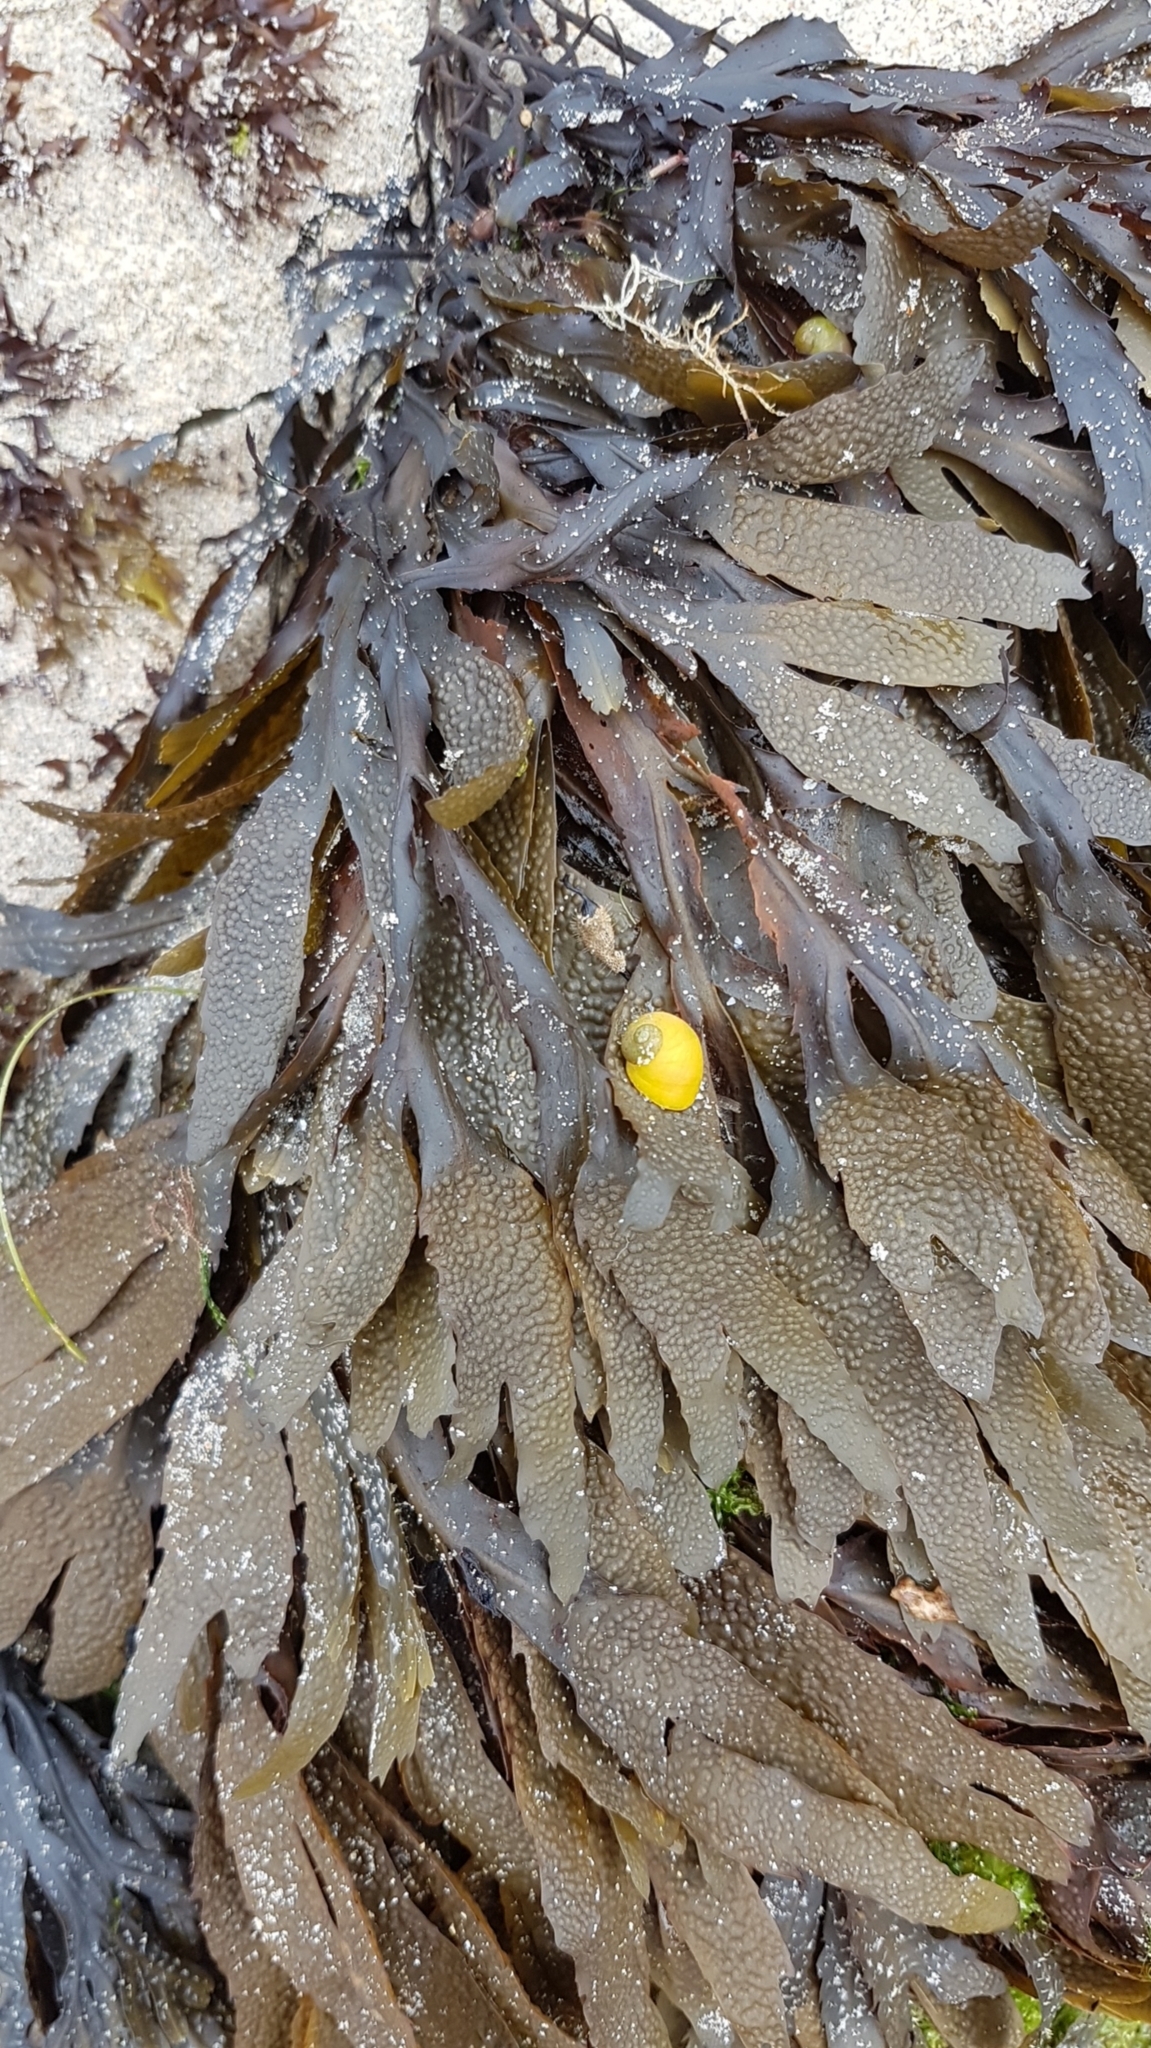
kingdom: Chromista
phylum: Ochrophyta
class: Phaeophyceae
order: Fucales
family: Fucaceae
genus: Fucus
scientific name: Fucus serratus
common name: Toothed wrack
